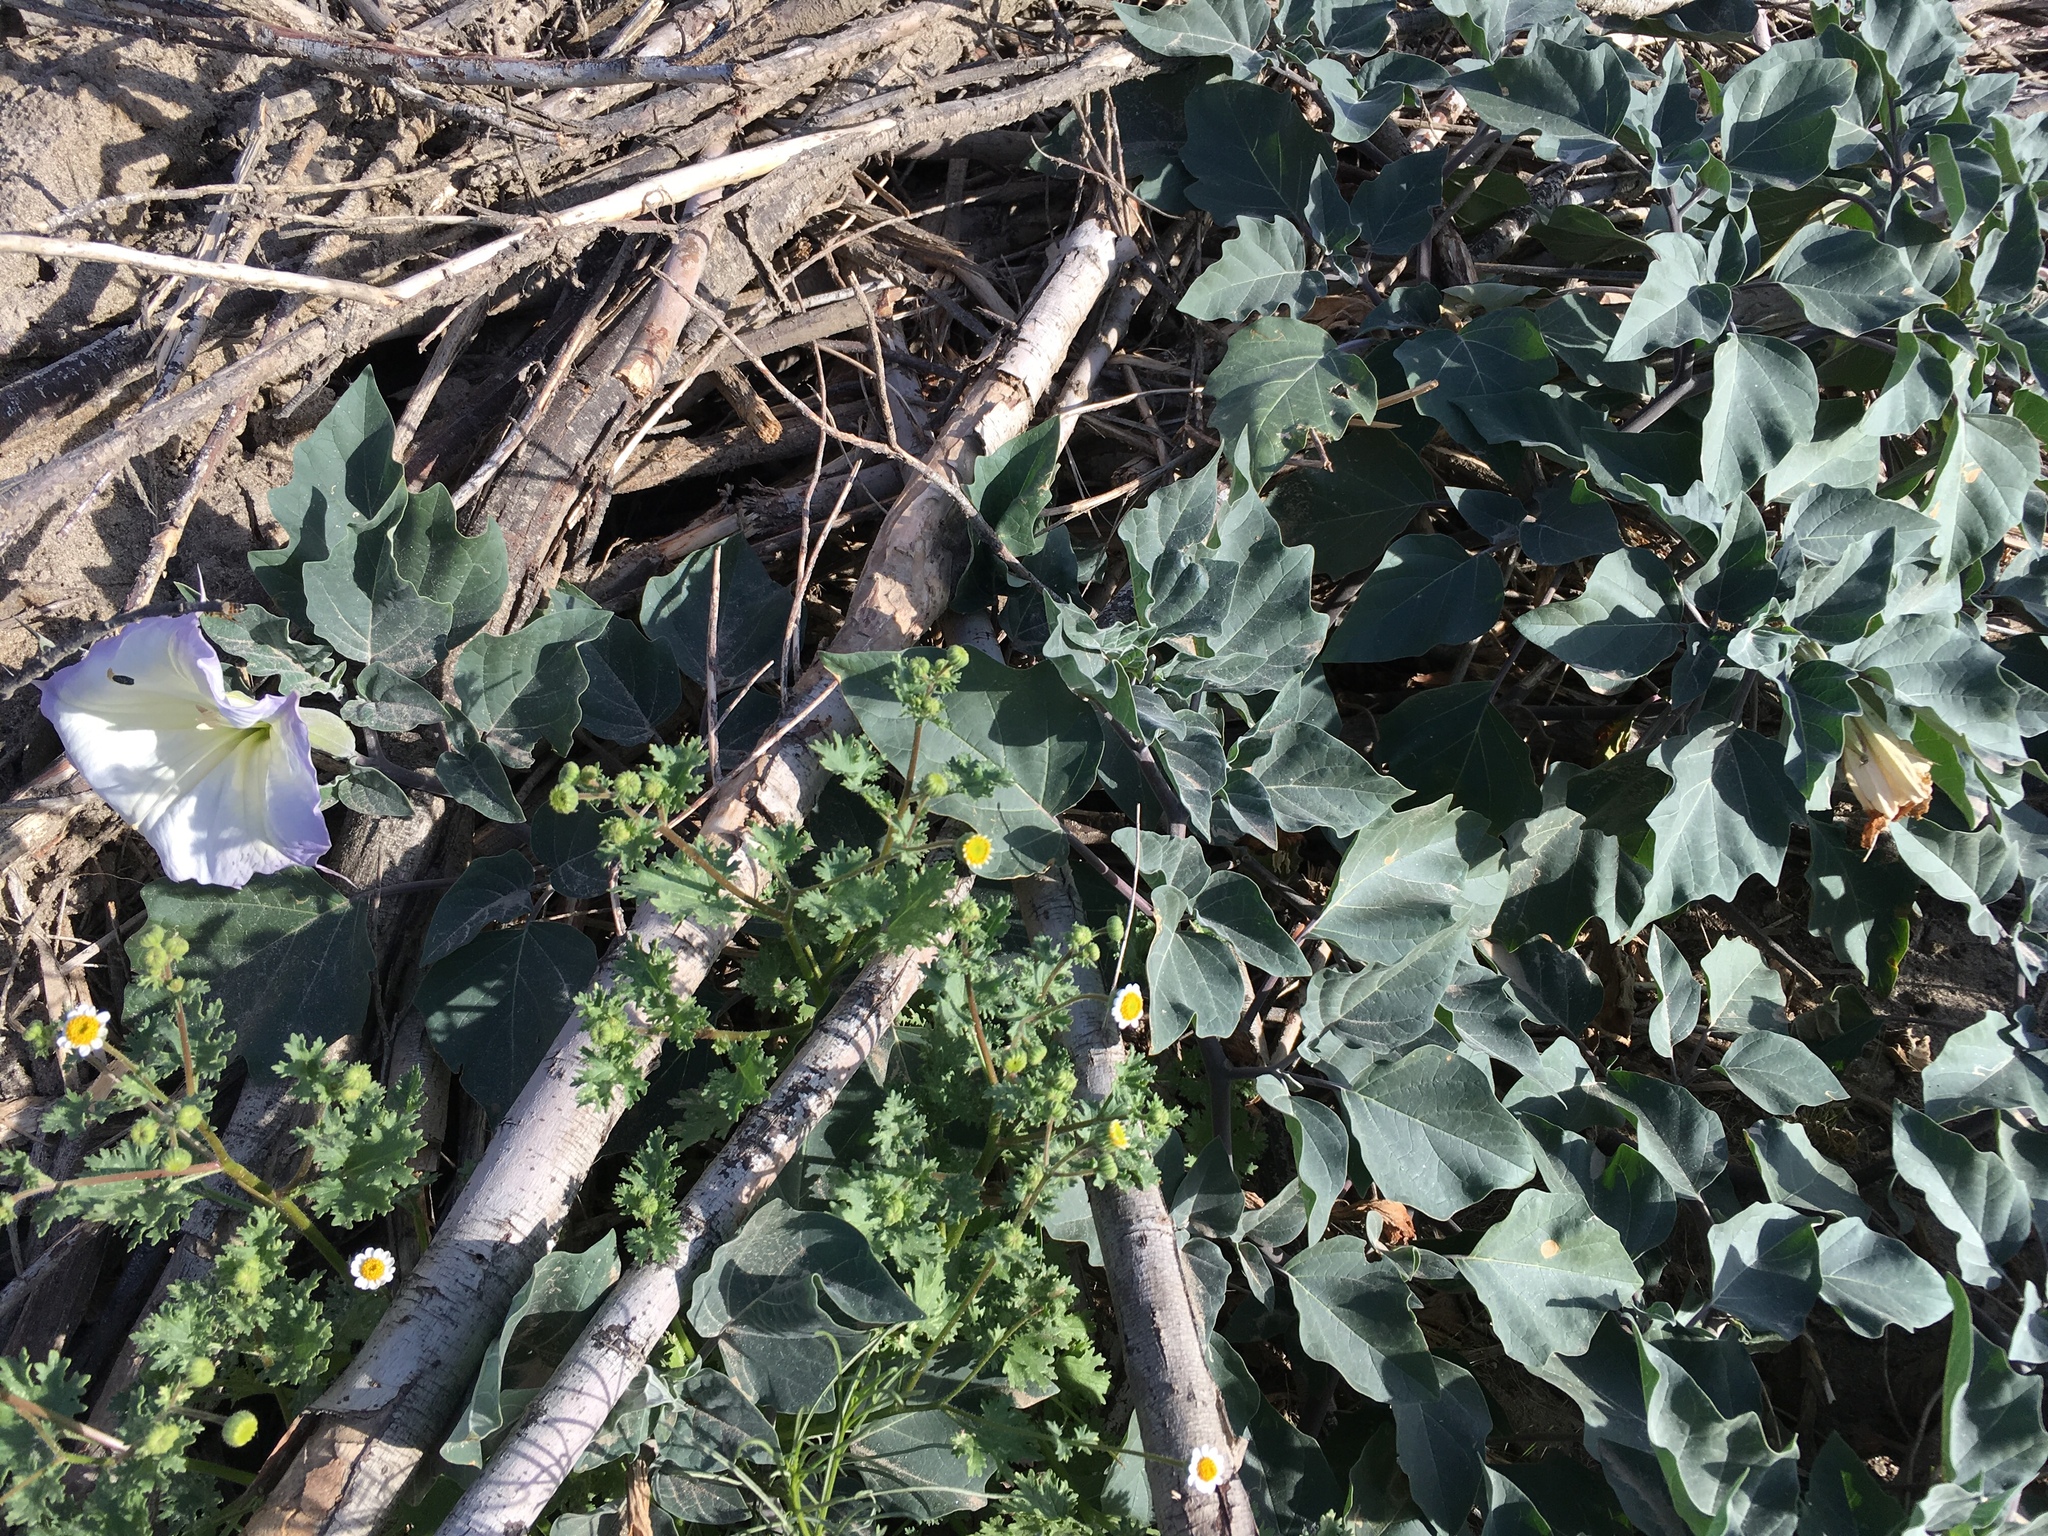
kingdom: Plantae
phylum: Tracheophyta
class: Magnoliopsida
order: Solanales
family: Solanaceae
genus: Datura
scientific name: Datura wrightii
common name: Sacred thorn-apple
